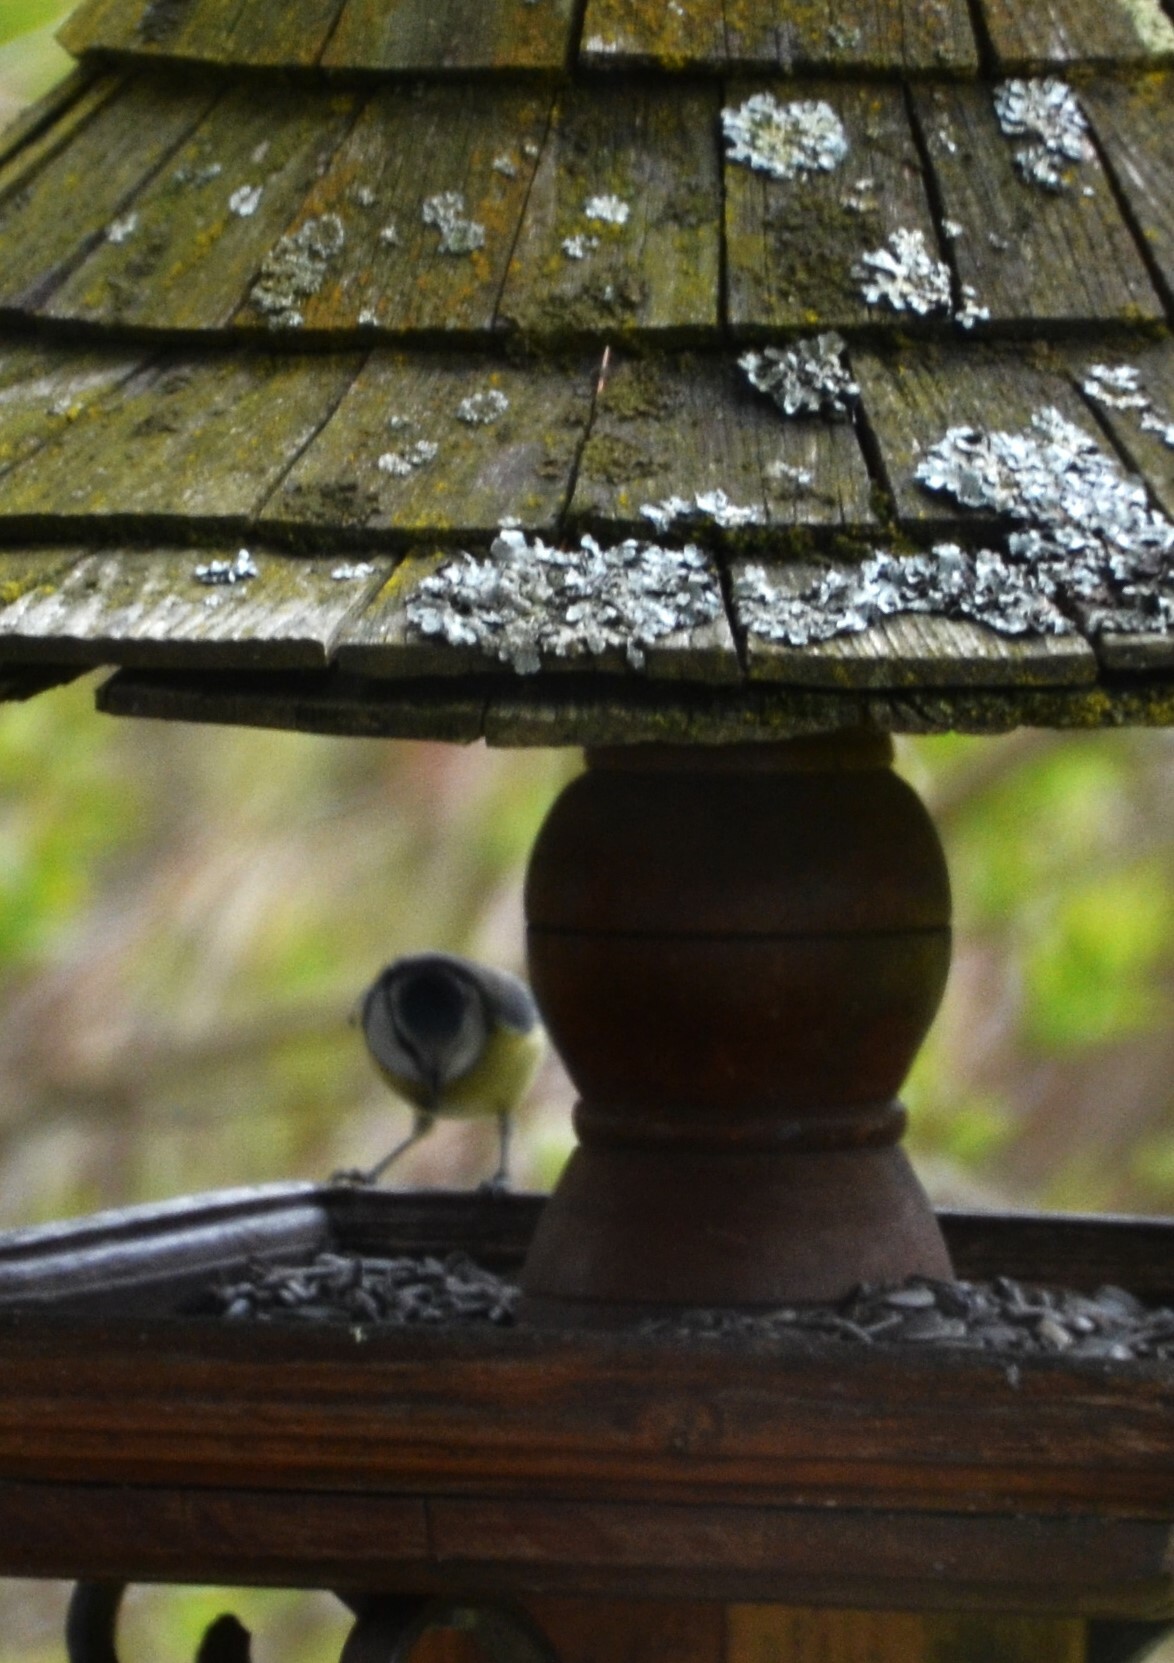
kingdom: Animalia
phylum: Chordata
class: Aves
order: Passeriformes
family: Paridae
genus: Cyanistes
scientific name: Cyanistes caeruleus
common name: Eurasian blue tit
